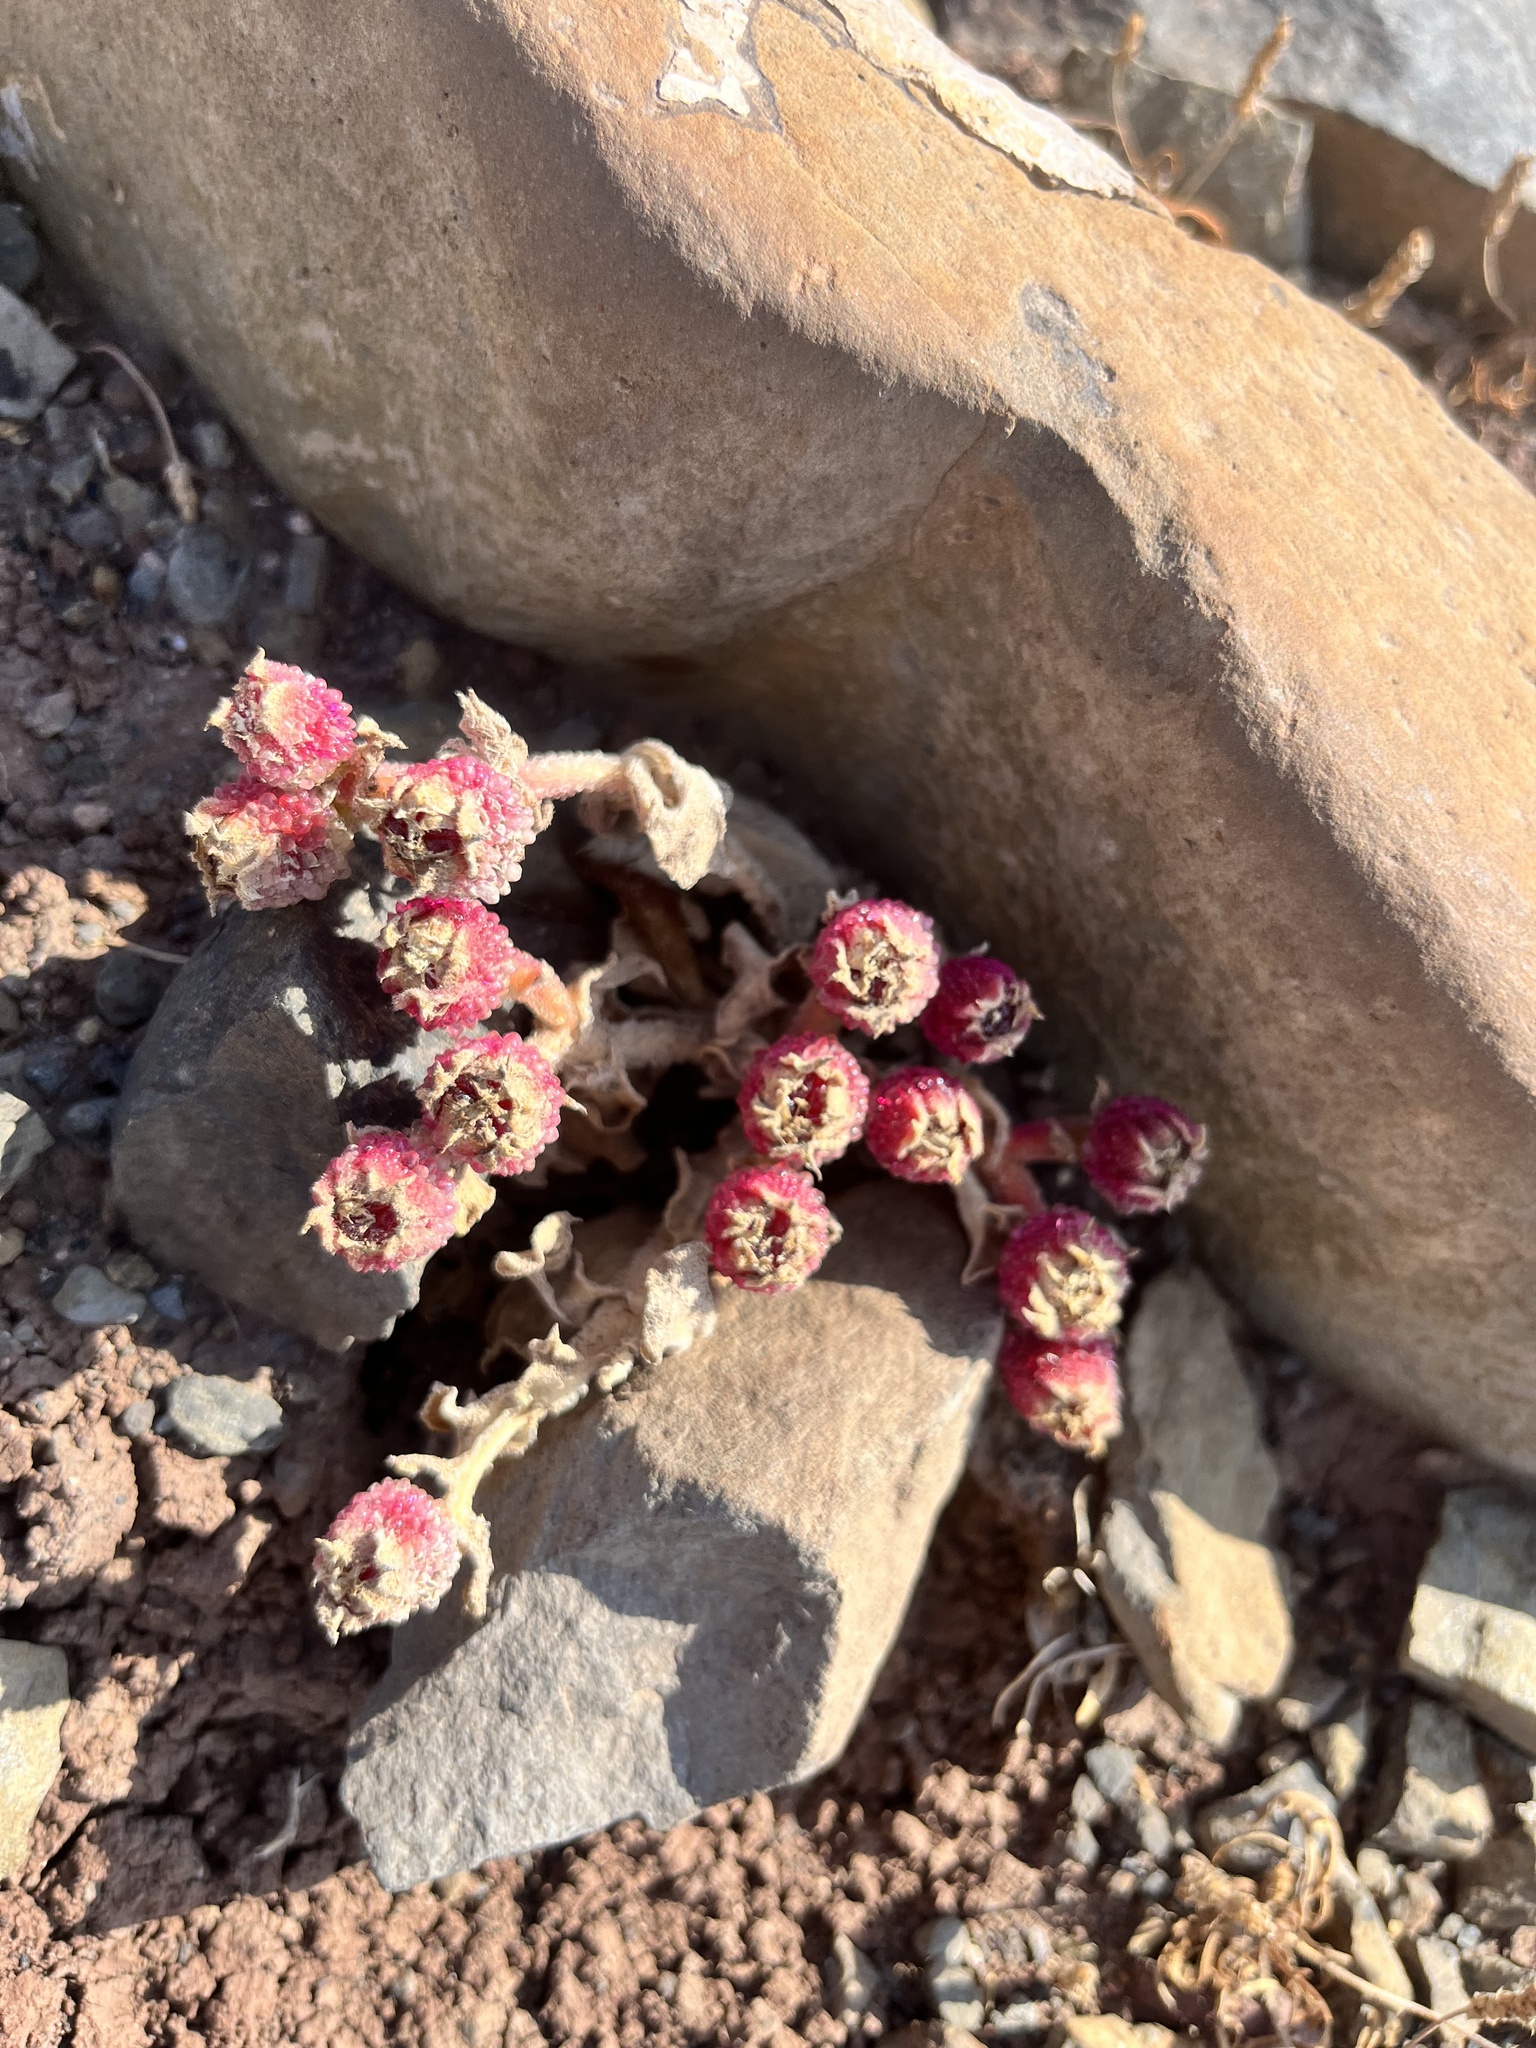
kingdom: Plantae
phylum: Tracheophyta
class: Magnoliopsida
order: Caryophyllales
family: Aizoaceae
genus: Mesembryanthemum
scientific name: Mesembryanthemum nodiflorum
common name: Slenderleaf iceplant
